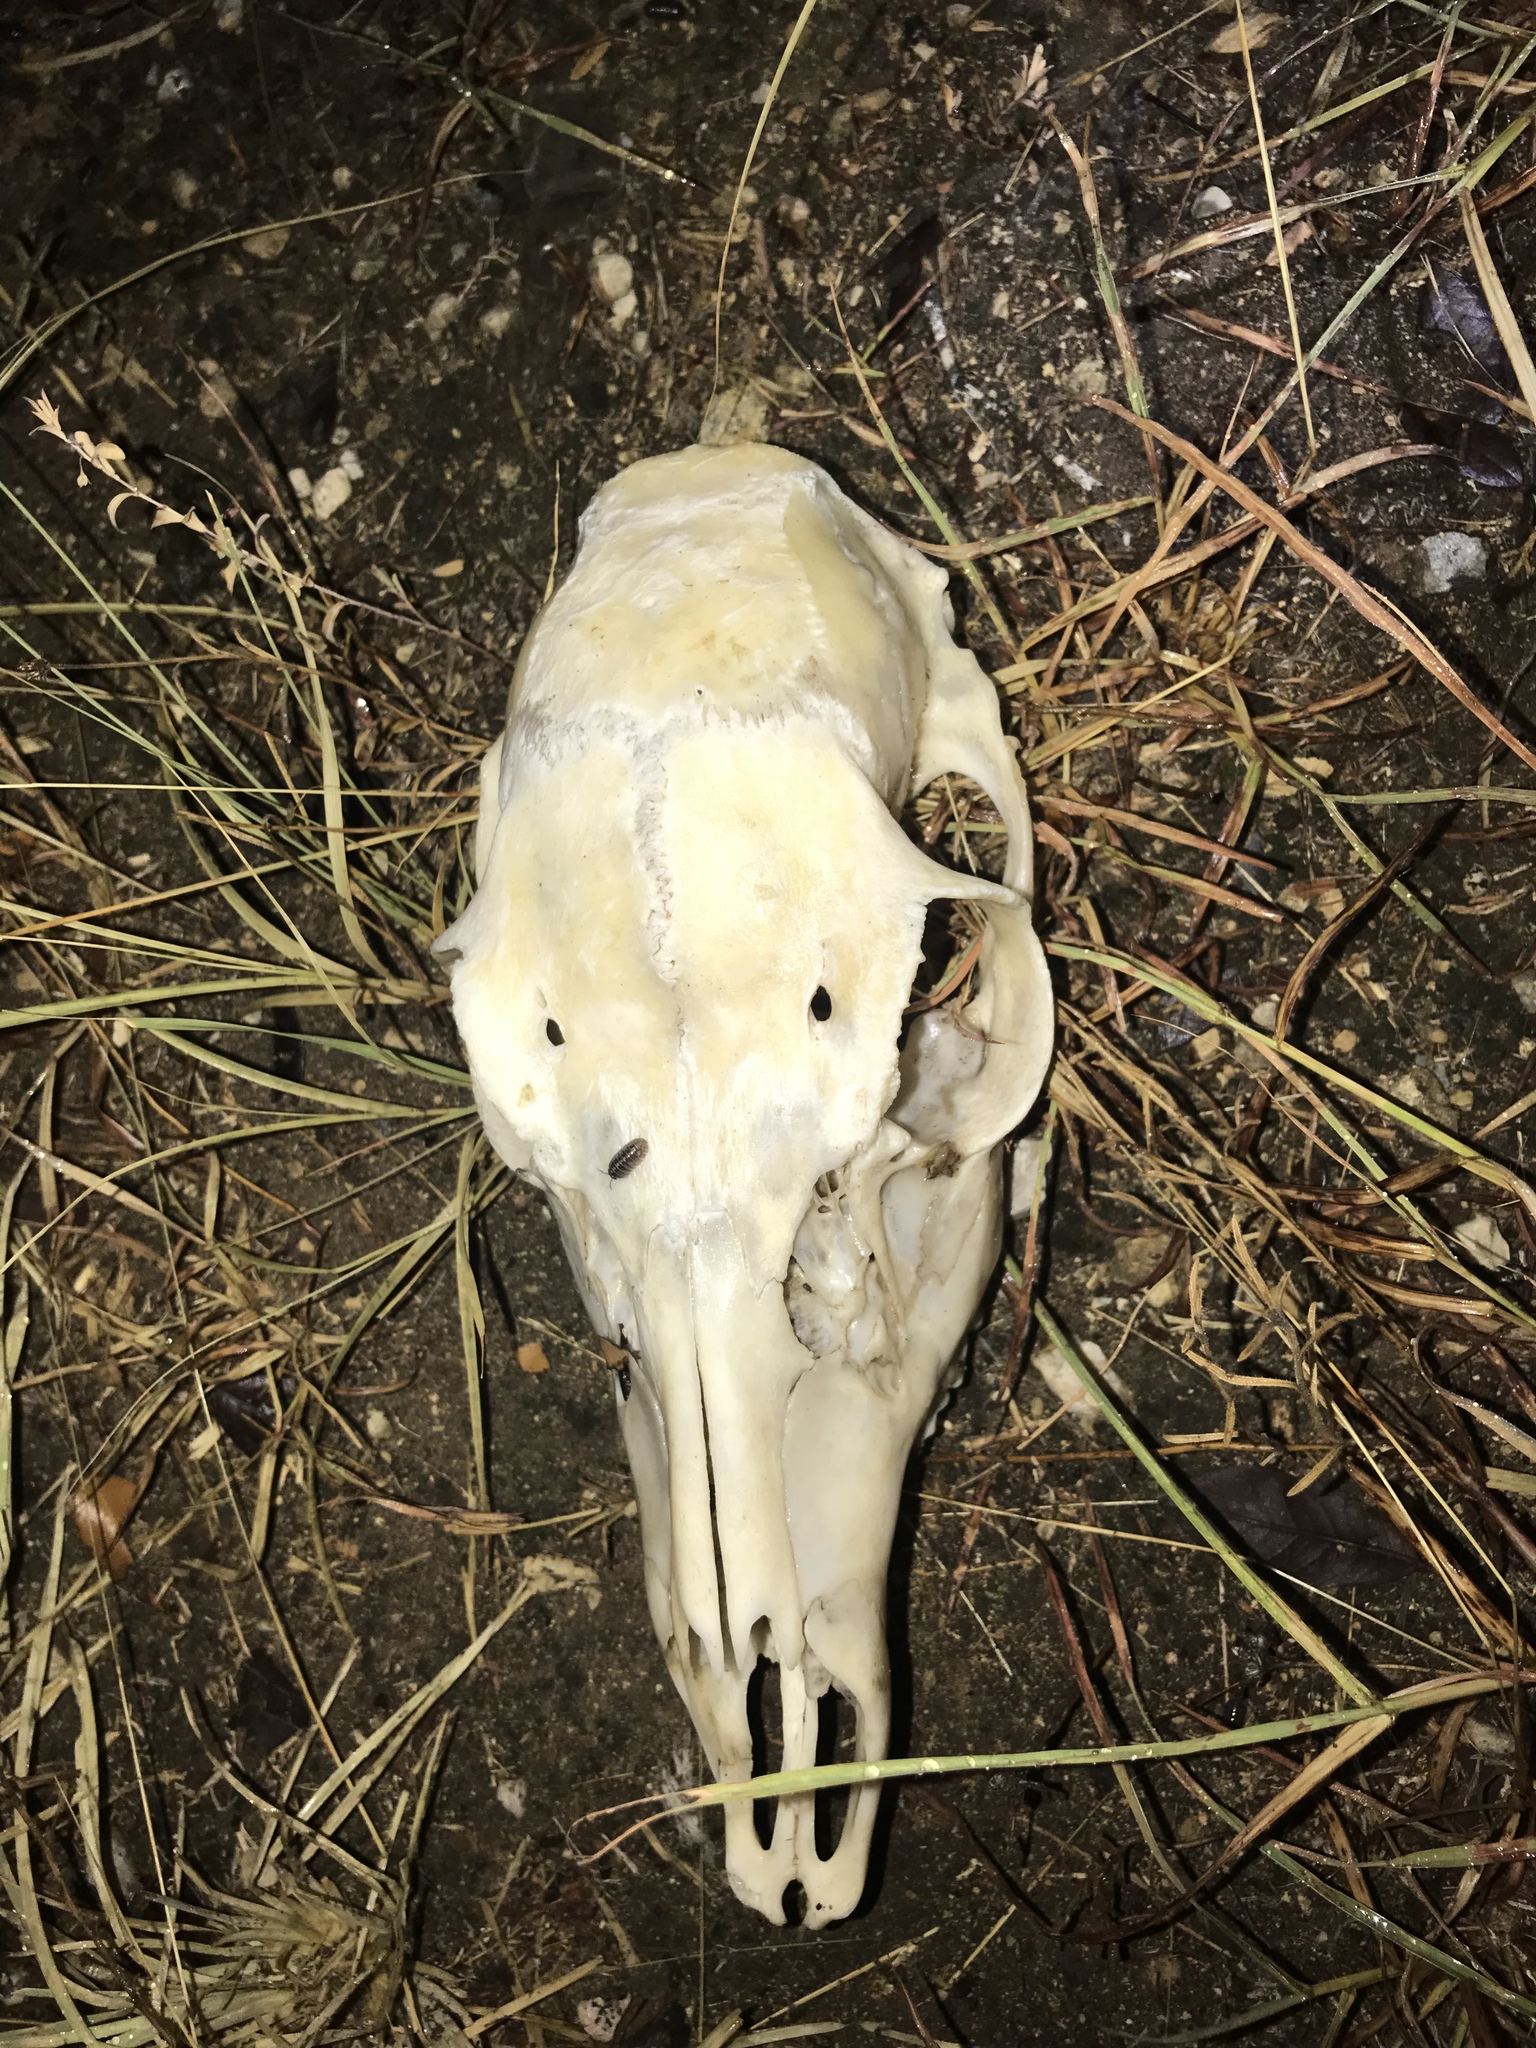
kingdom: Animalia
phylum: Chordata
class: Mammalia
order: Artiodactyla
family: Cervidae
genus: Odocoileus
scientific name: Odocoileus virginianus
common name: White-tailed deer
